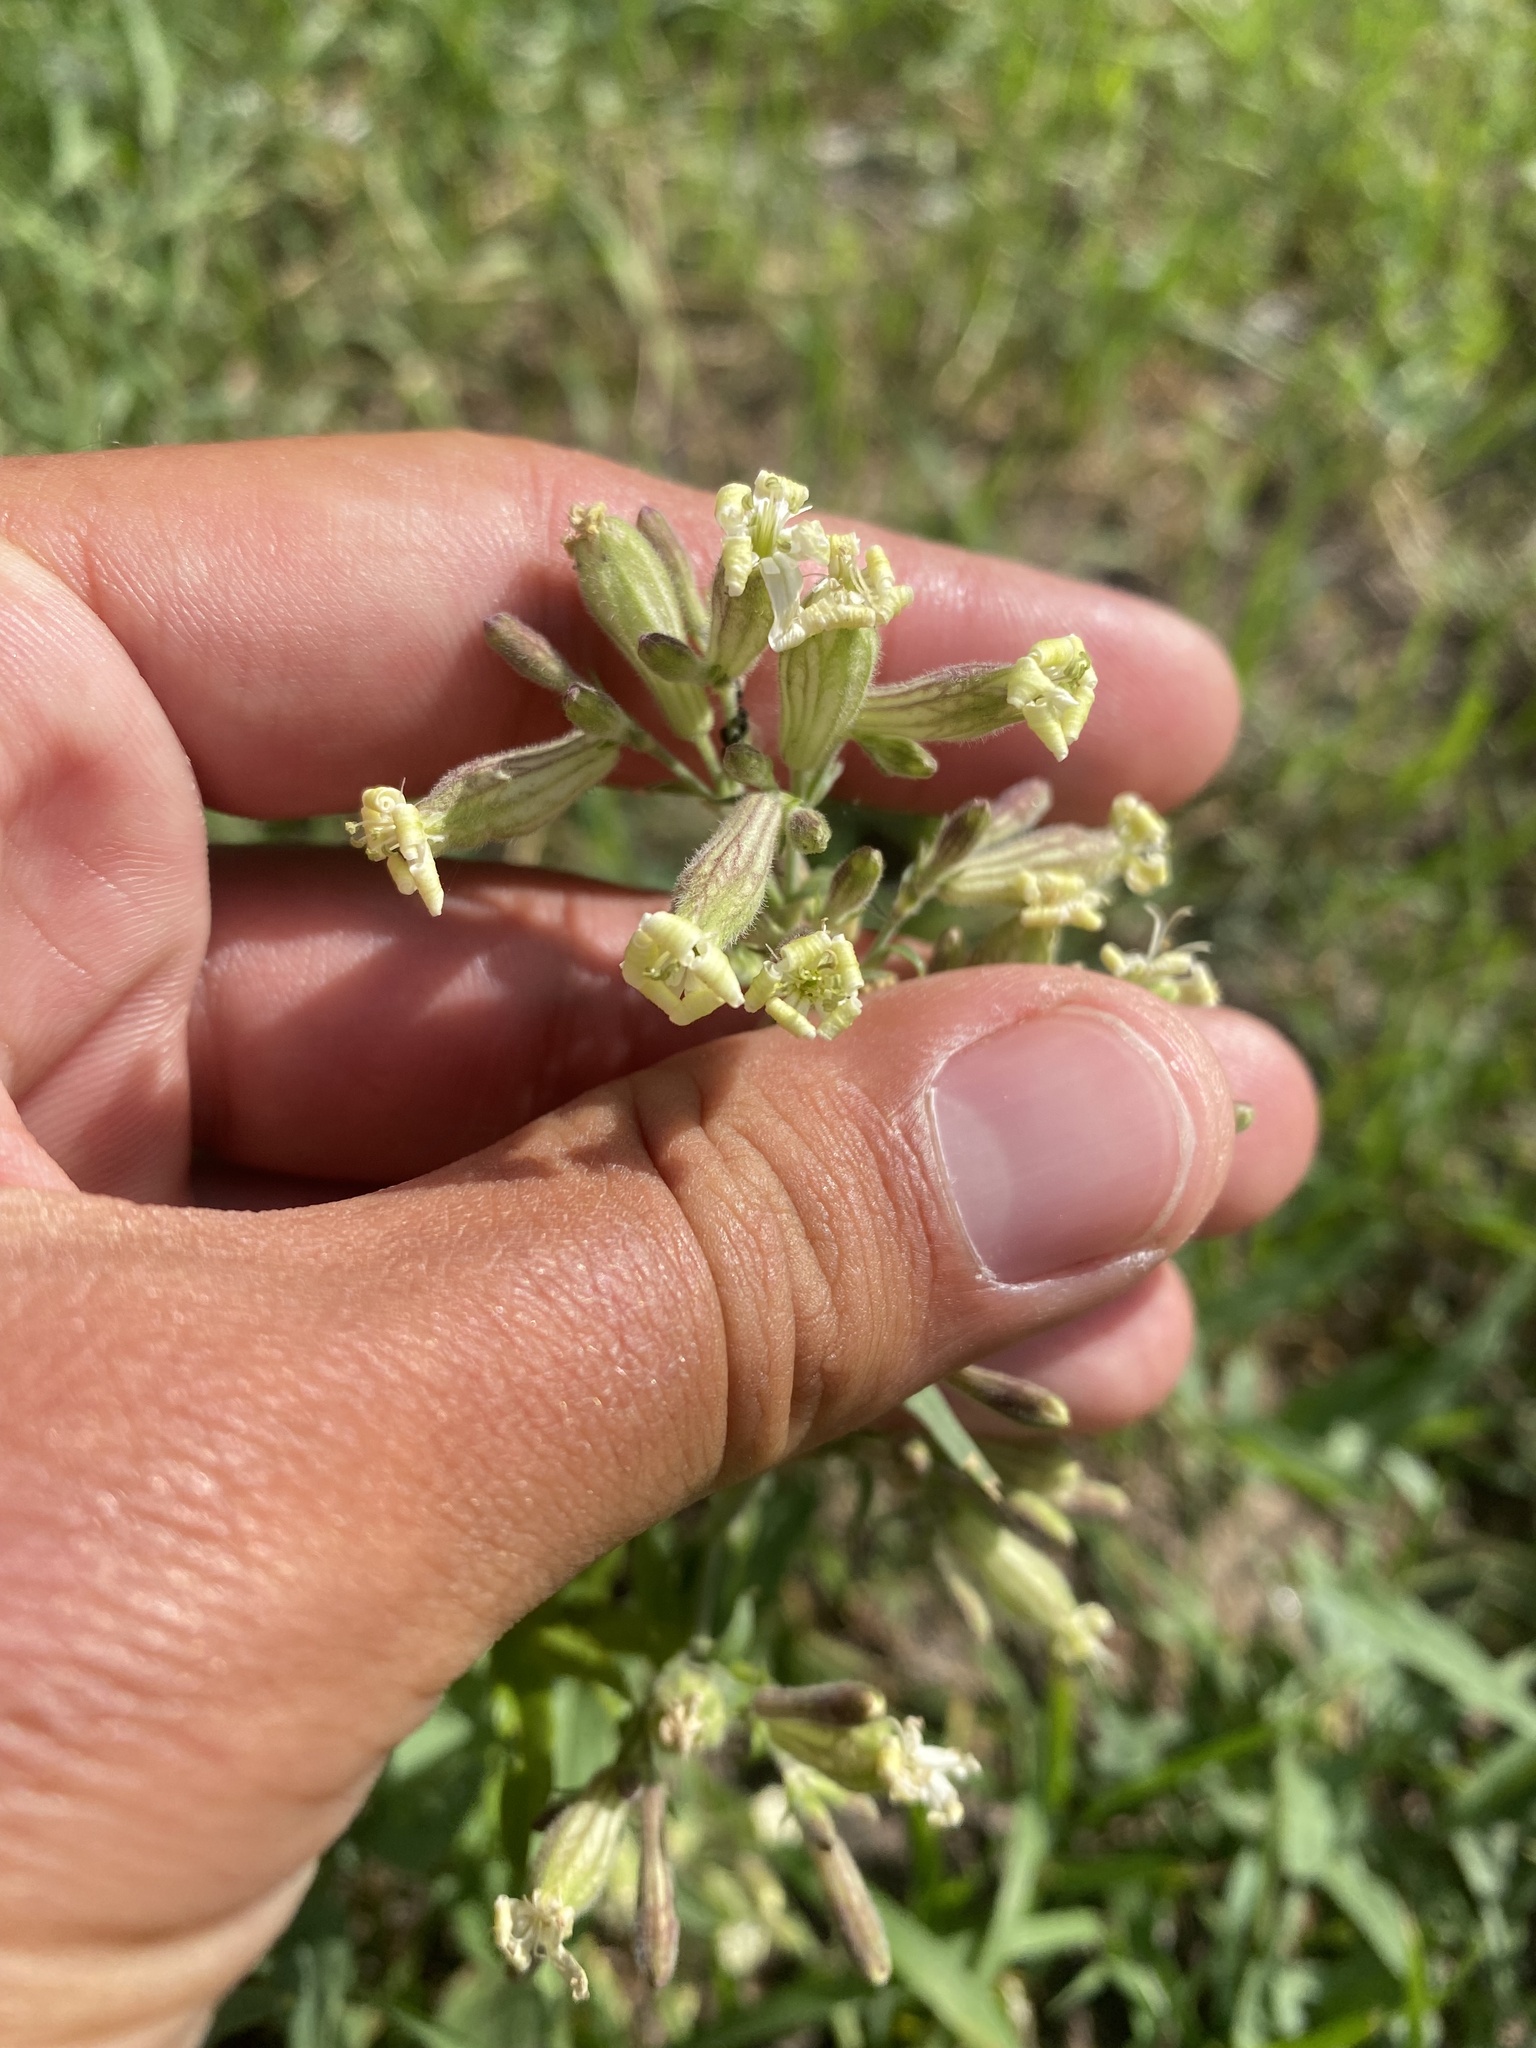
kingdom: Plantae
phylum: Tracheophyta
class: Magnoliopsida
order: Caryophyllales
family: Caryophyllaceae
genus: Silene
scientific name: Silene amoena
